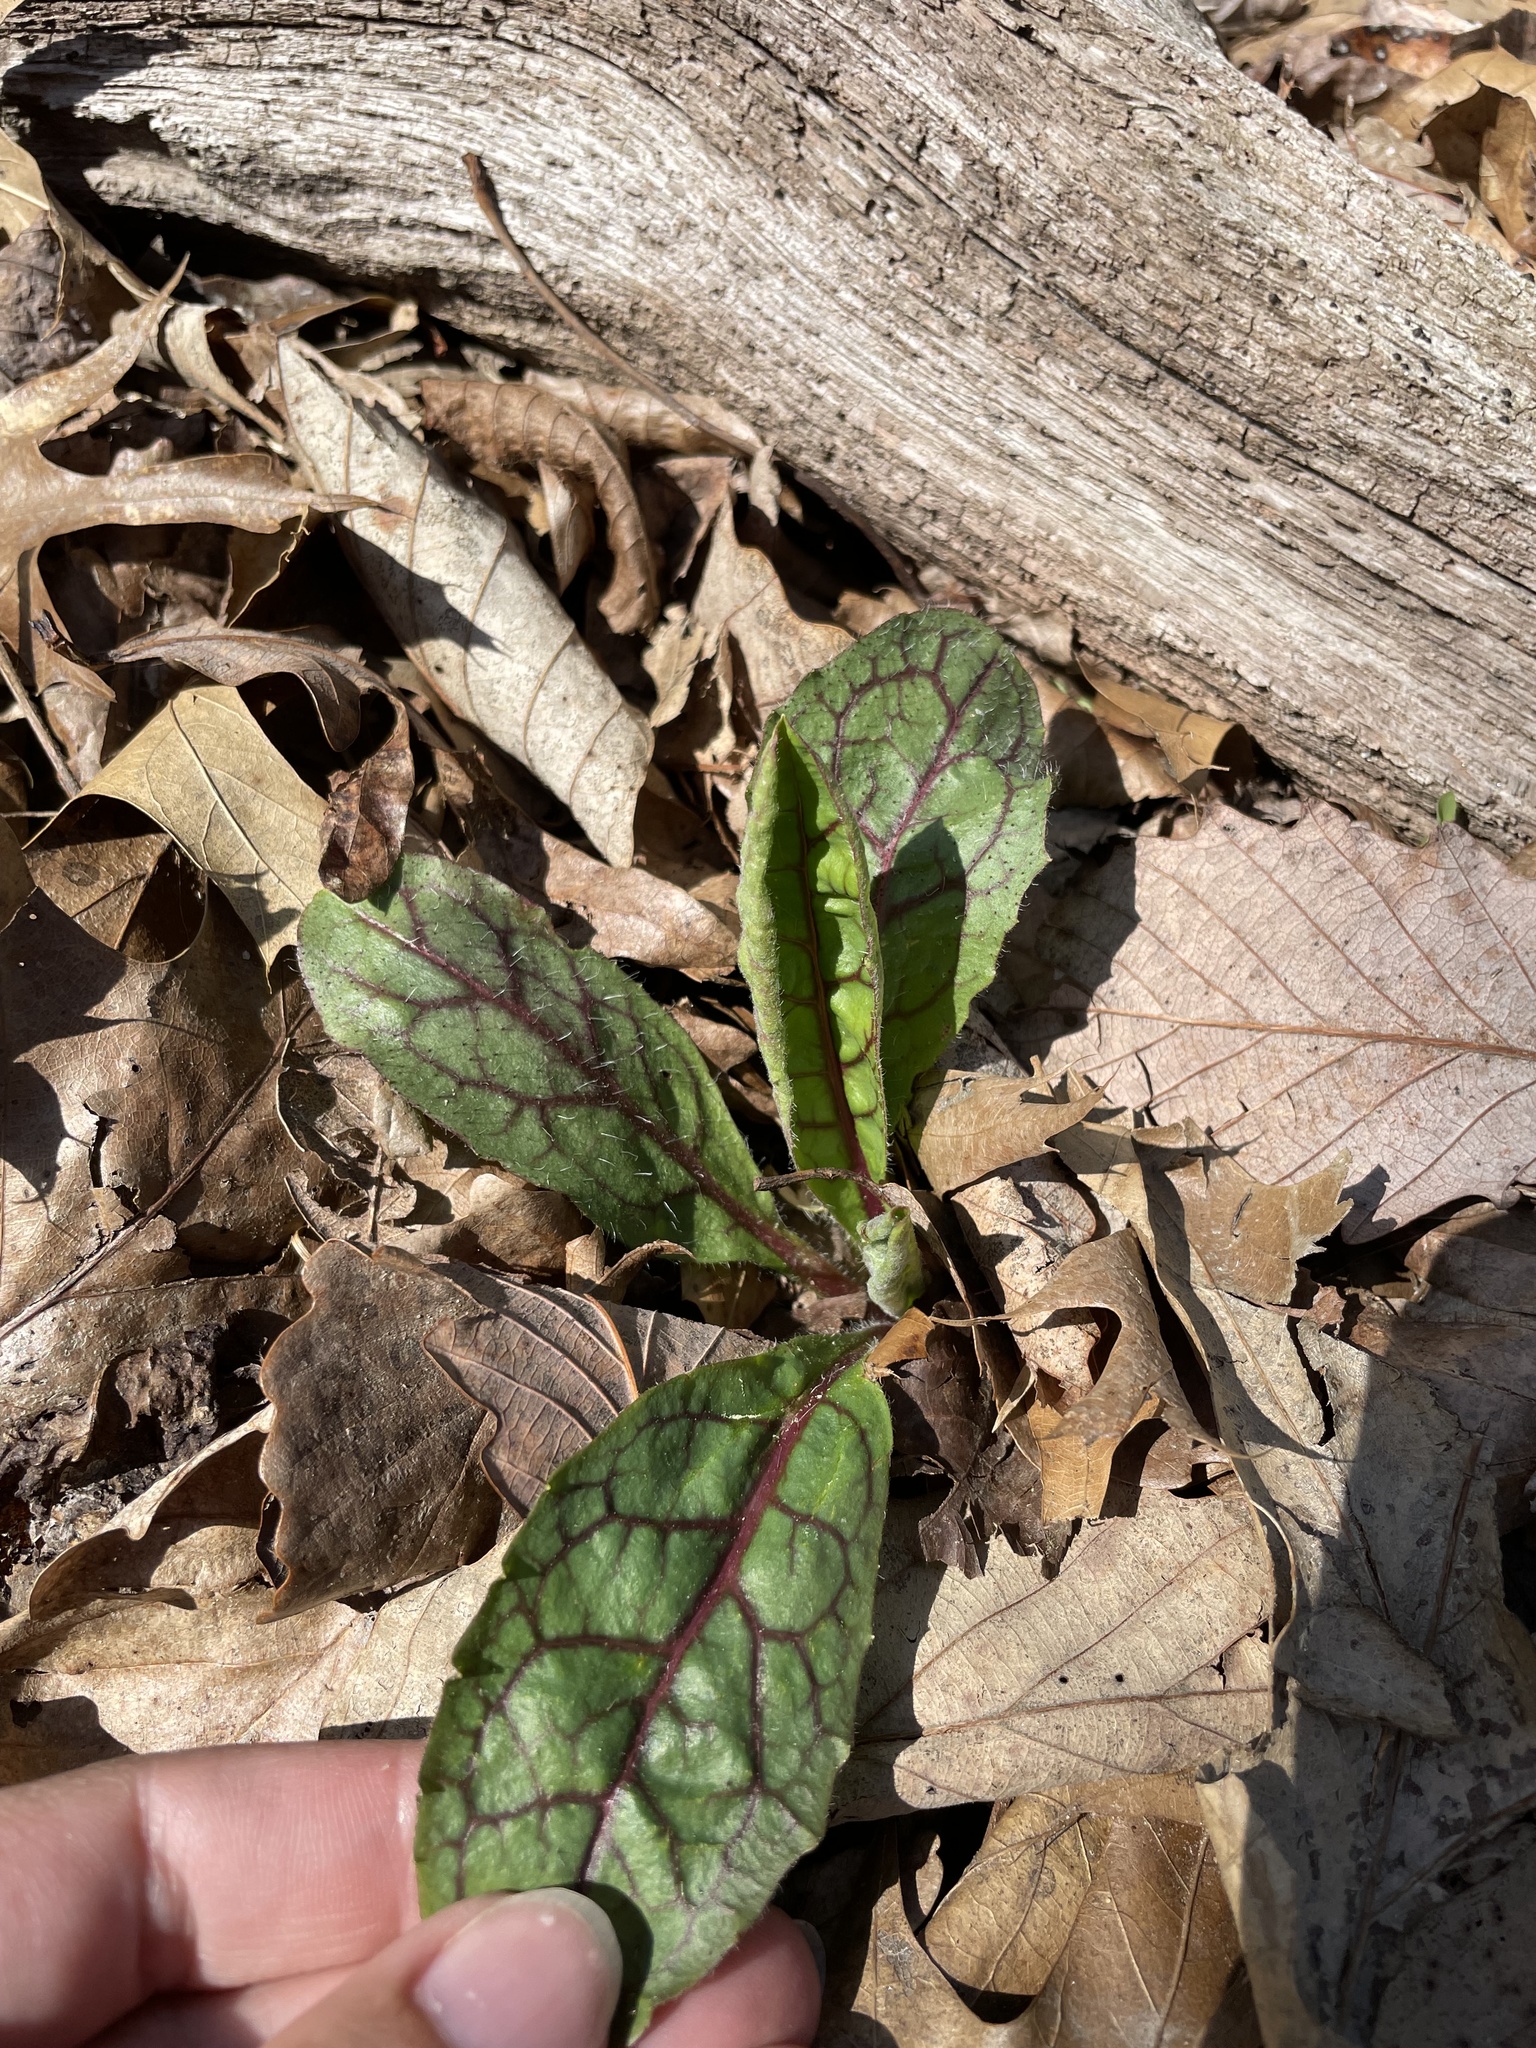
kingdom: Plantae
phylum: Tracheophyta
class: Magnoliopsida
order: Asterales
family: Asteraceae
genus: Hieracium
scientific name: Hieracium venosum
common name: Rattlesnake hawkweed
